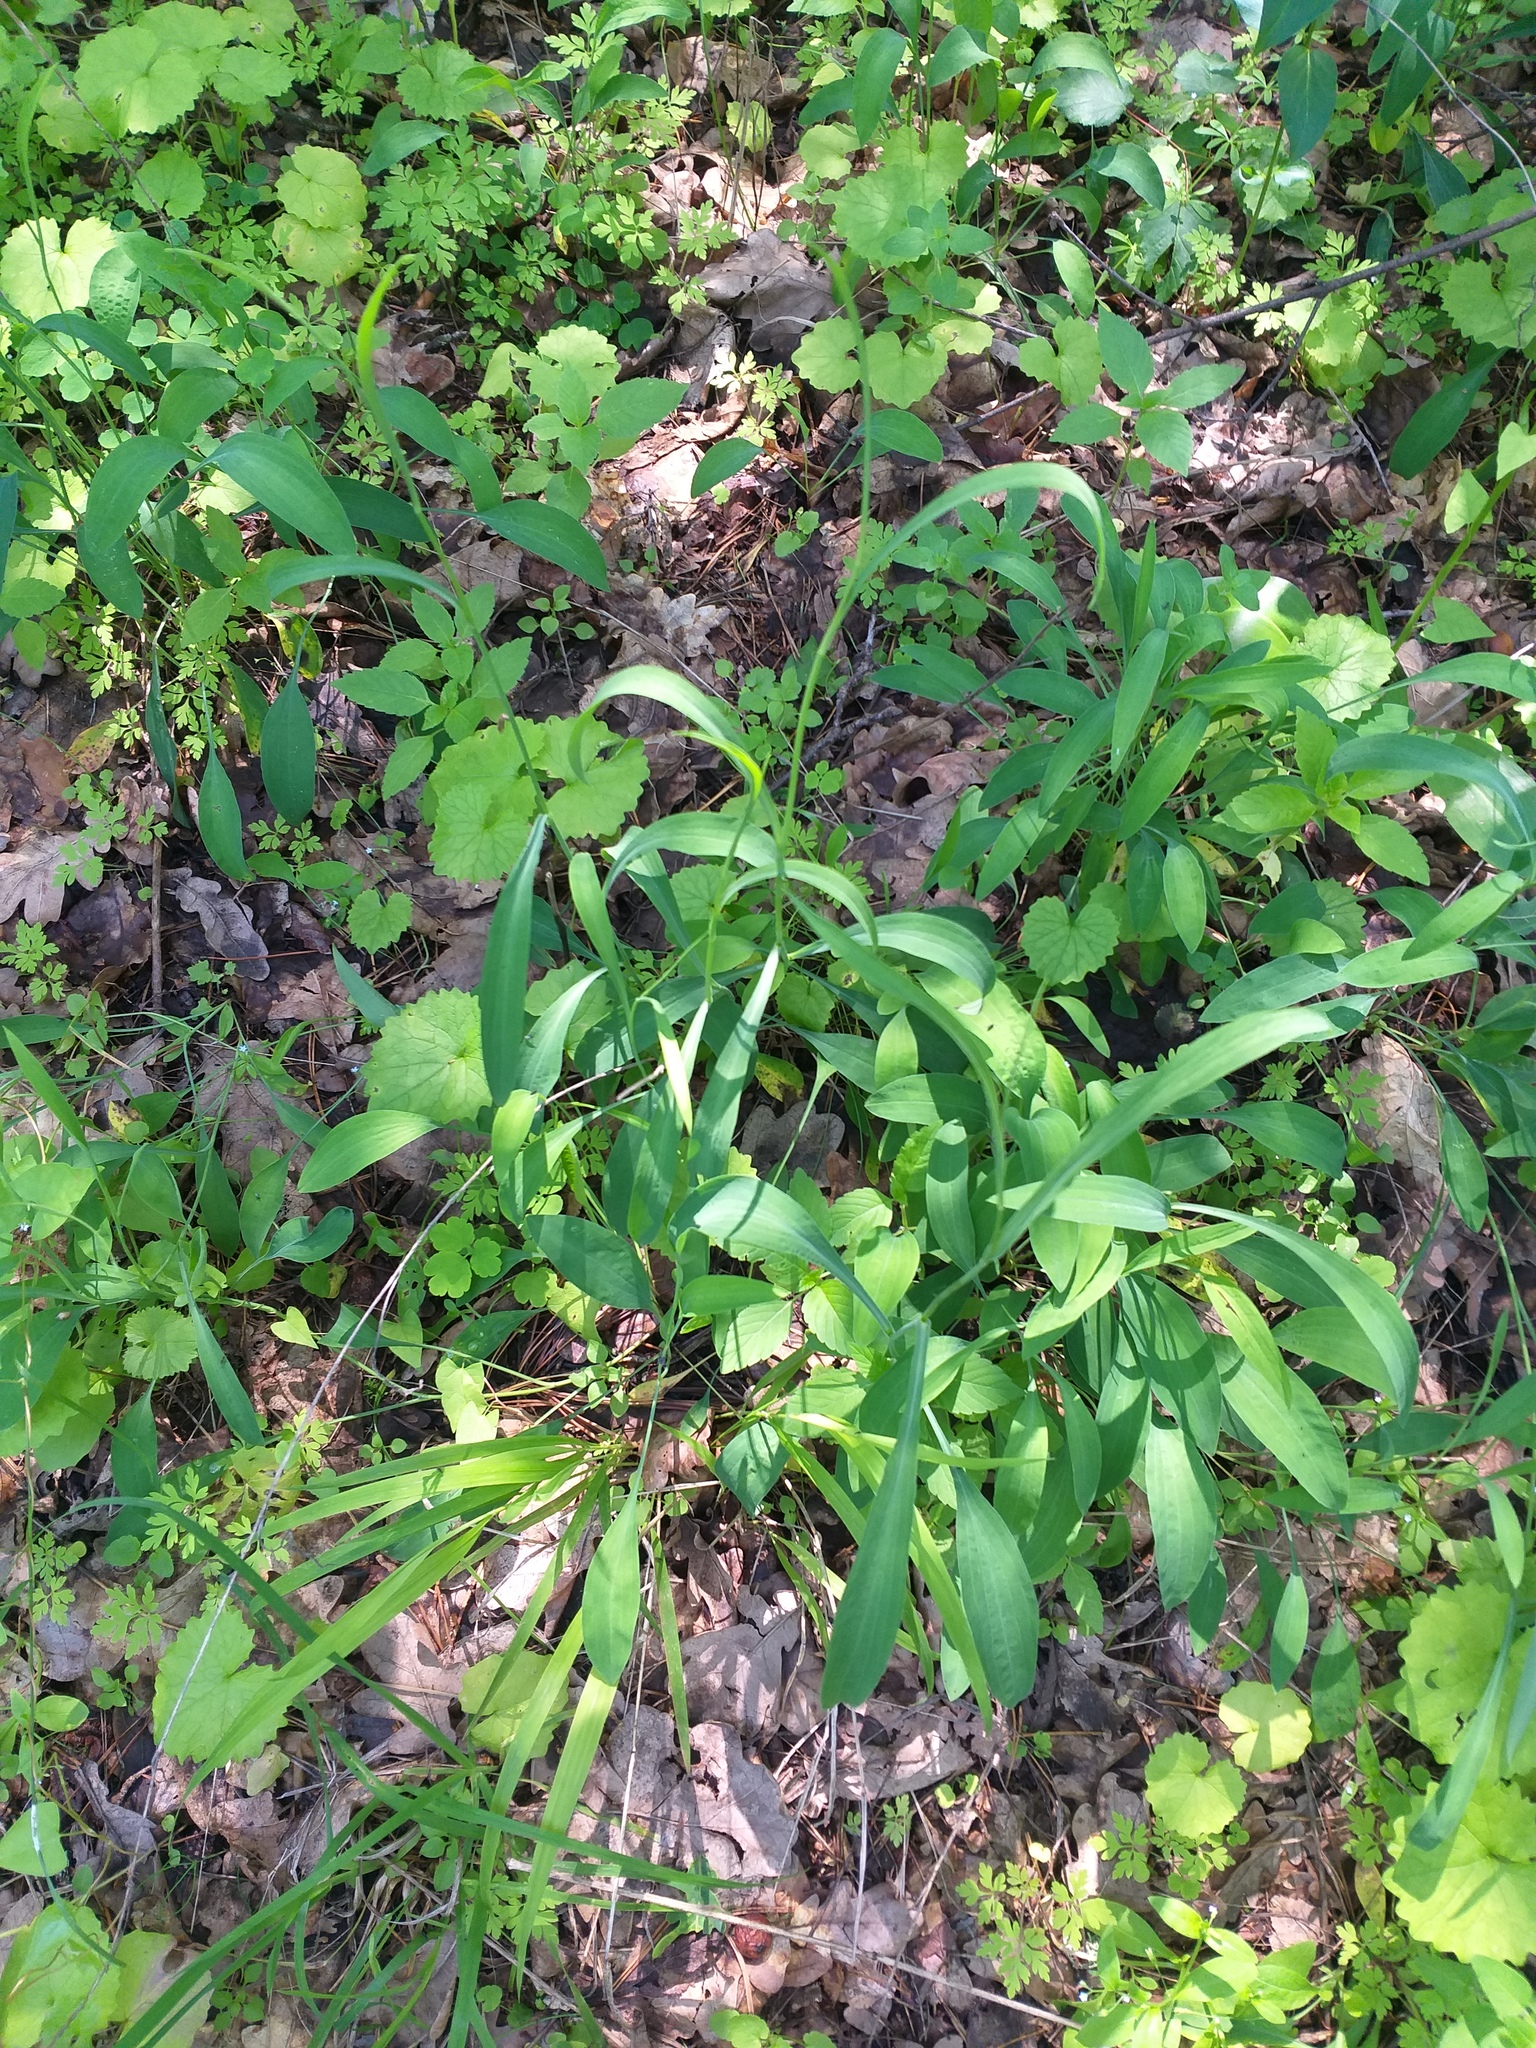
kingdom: Plantae
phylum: Tracheophyta
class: Magnoliopsida
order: Apiales
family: Apiaceae
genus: Bupleurum
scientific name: Bupleurum falcatum
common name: Sickle-leaved hare's-ear
